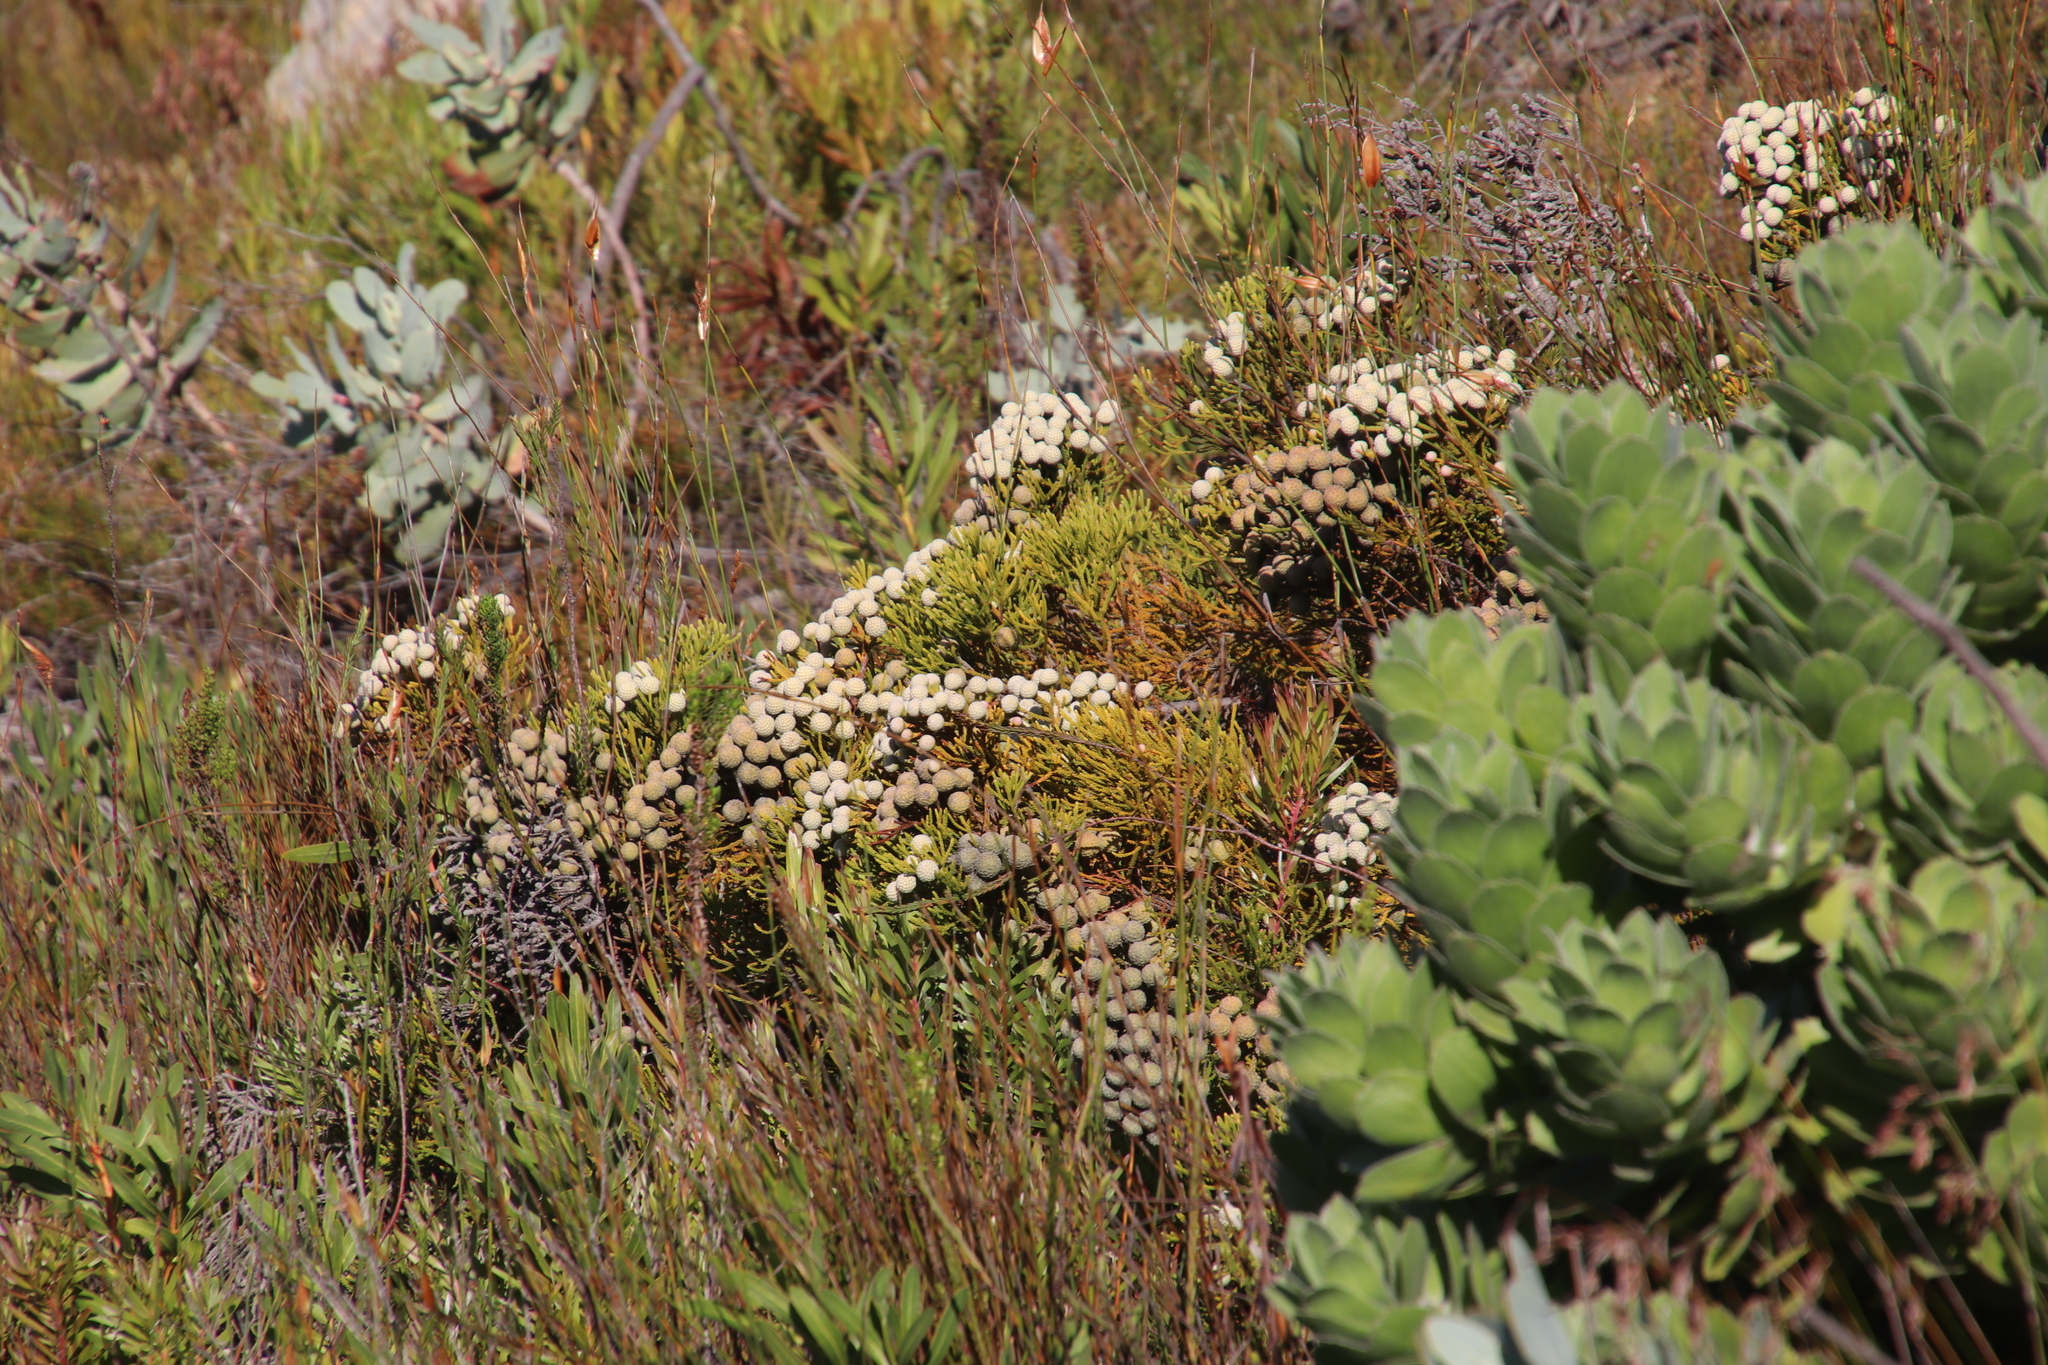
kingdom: Plantae
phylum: Tracheophyta
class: Magnoliopsida
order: Bruniales
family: Bruniaceae
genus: Brunia
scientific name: Brunia noduliflora
